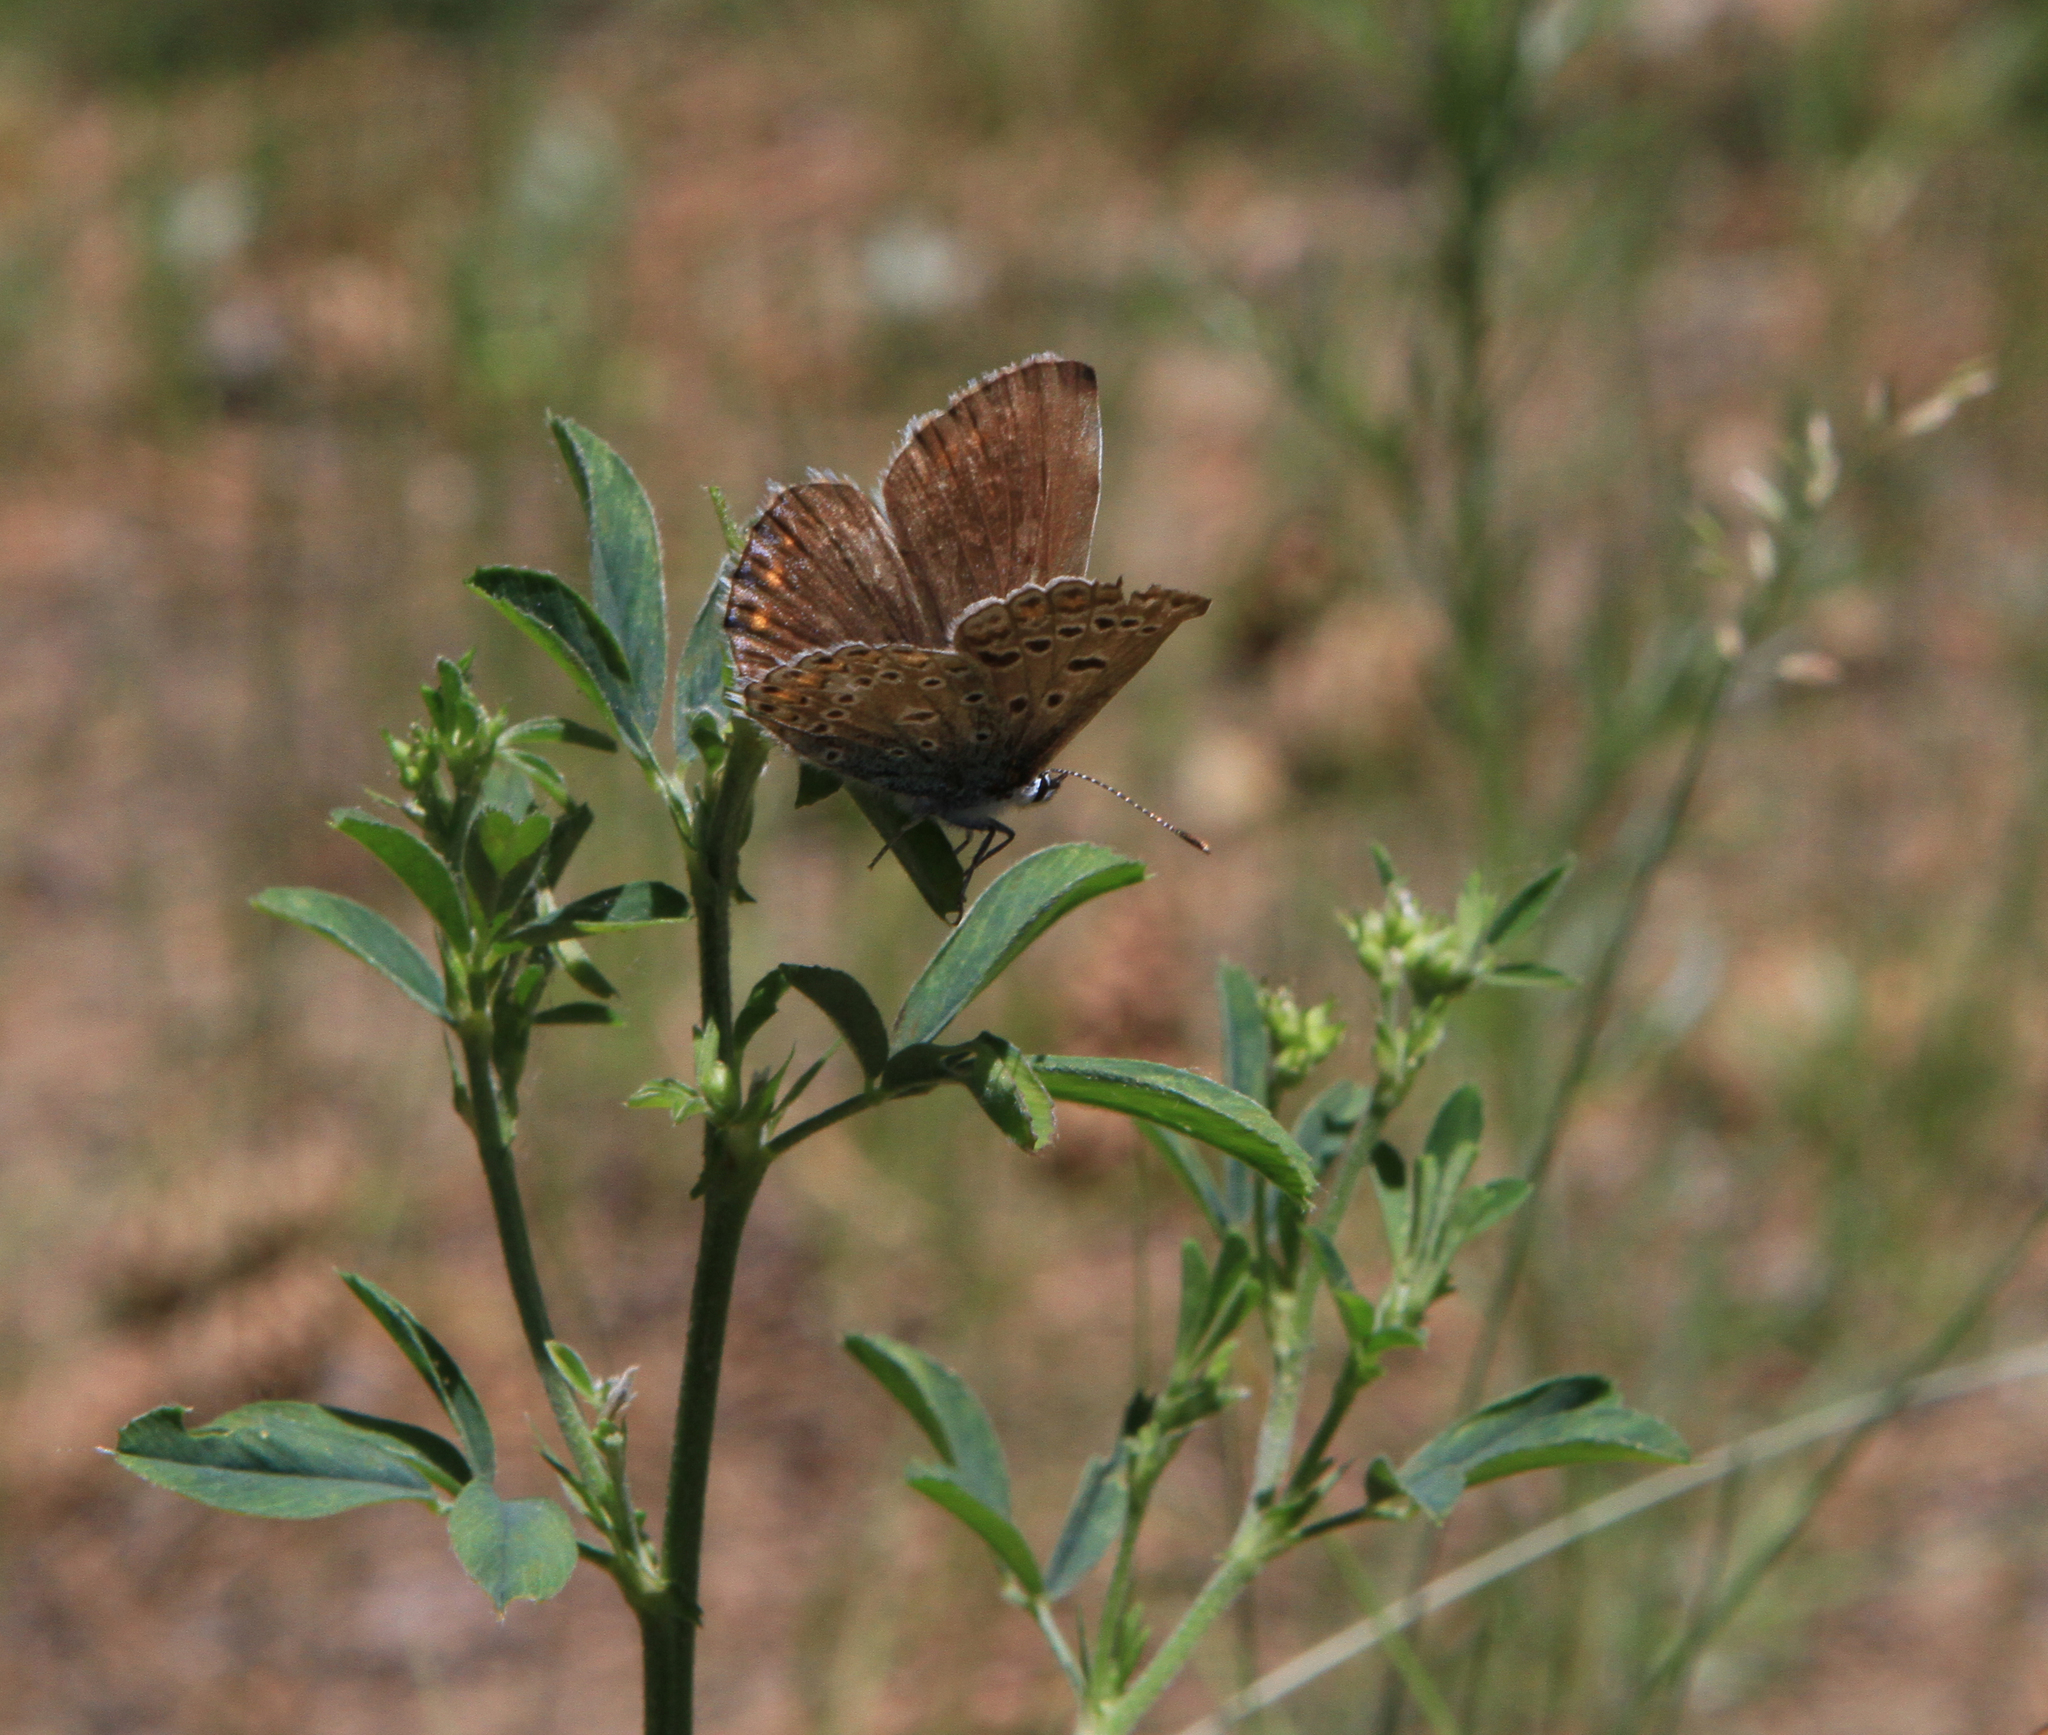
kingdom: Animalia
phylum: Arthropoda
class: Insecta
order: Lepidoptera
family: Lycaenidae
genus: Polyommatus
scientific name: Polyommatus icarus
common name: Common blue
